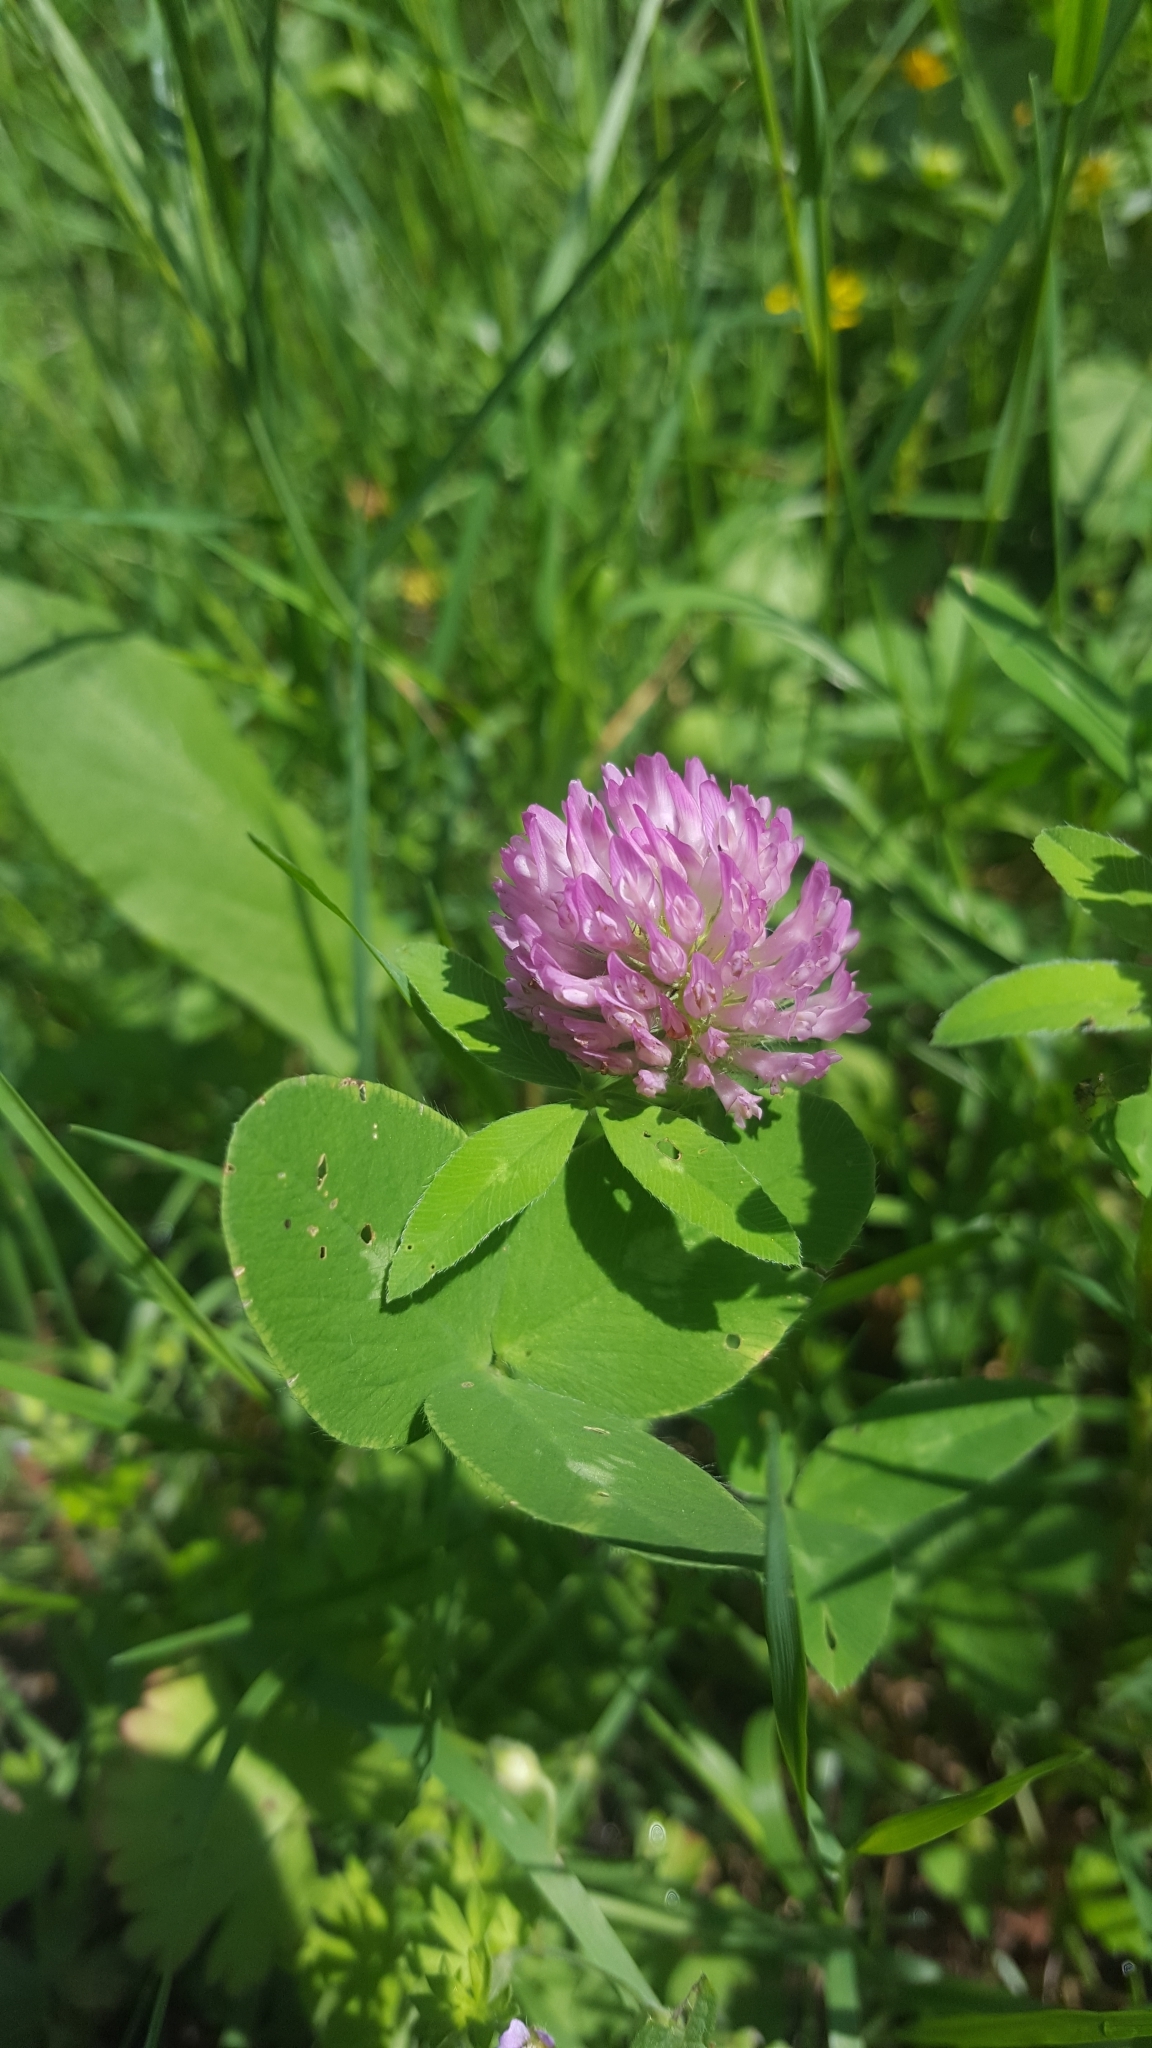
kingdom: Plantae
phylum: Tracheophyta
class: Magnoliopsida
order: Fabales
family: Fabaceae
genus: Trifolium
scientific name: Trifolium pratense
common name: Red clover
